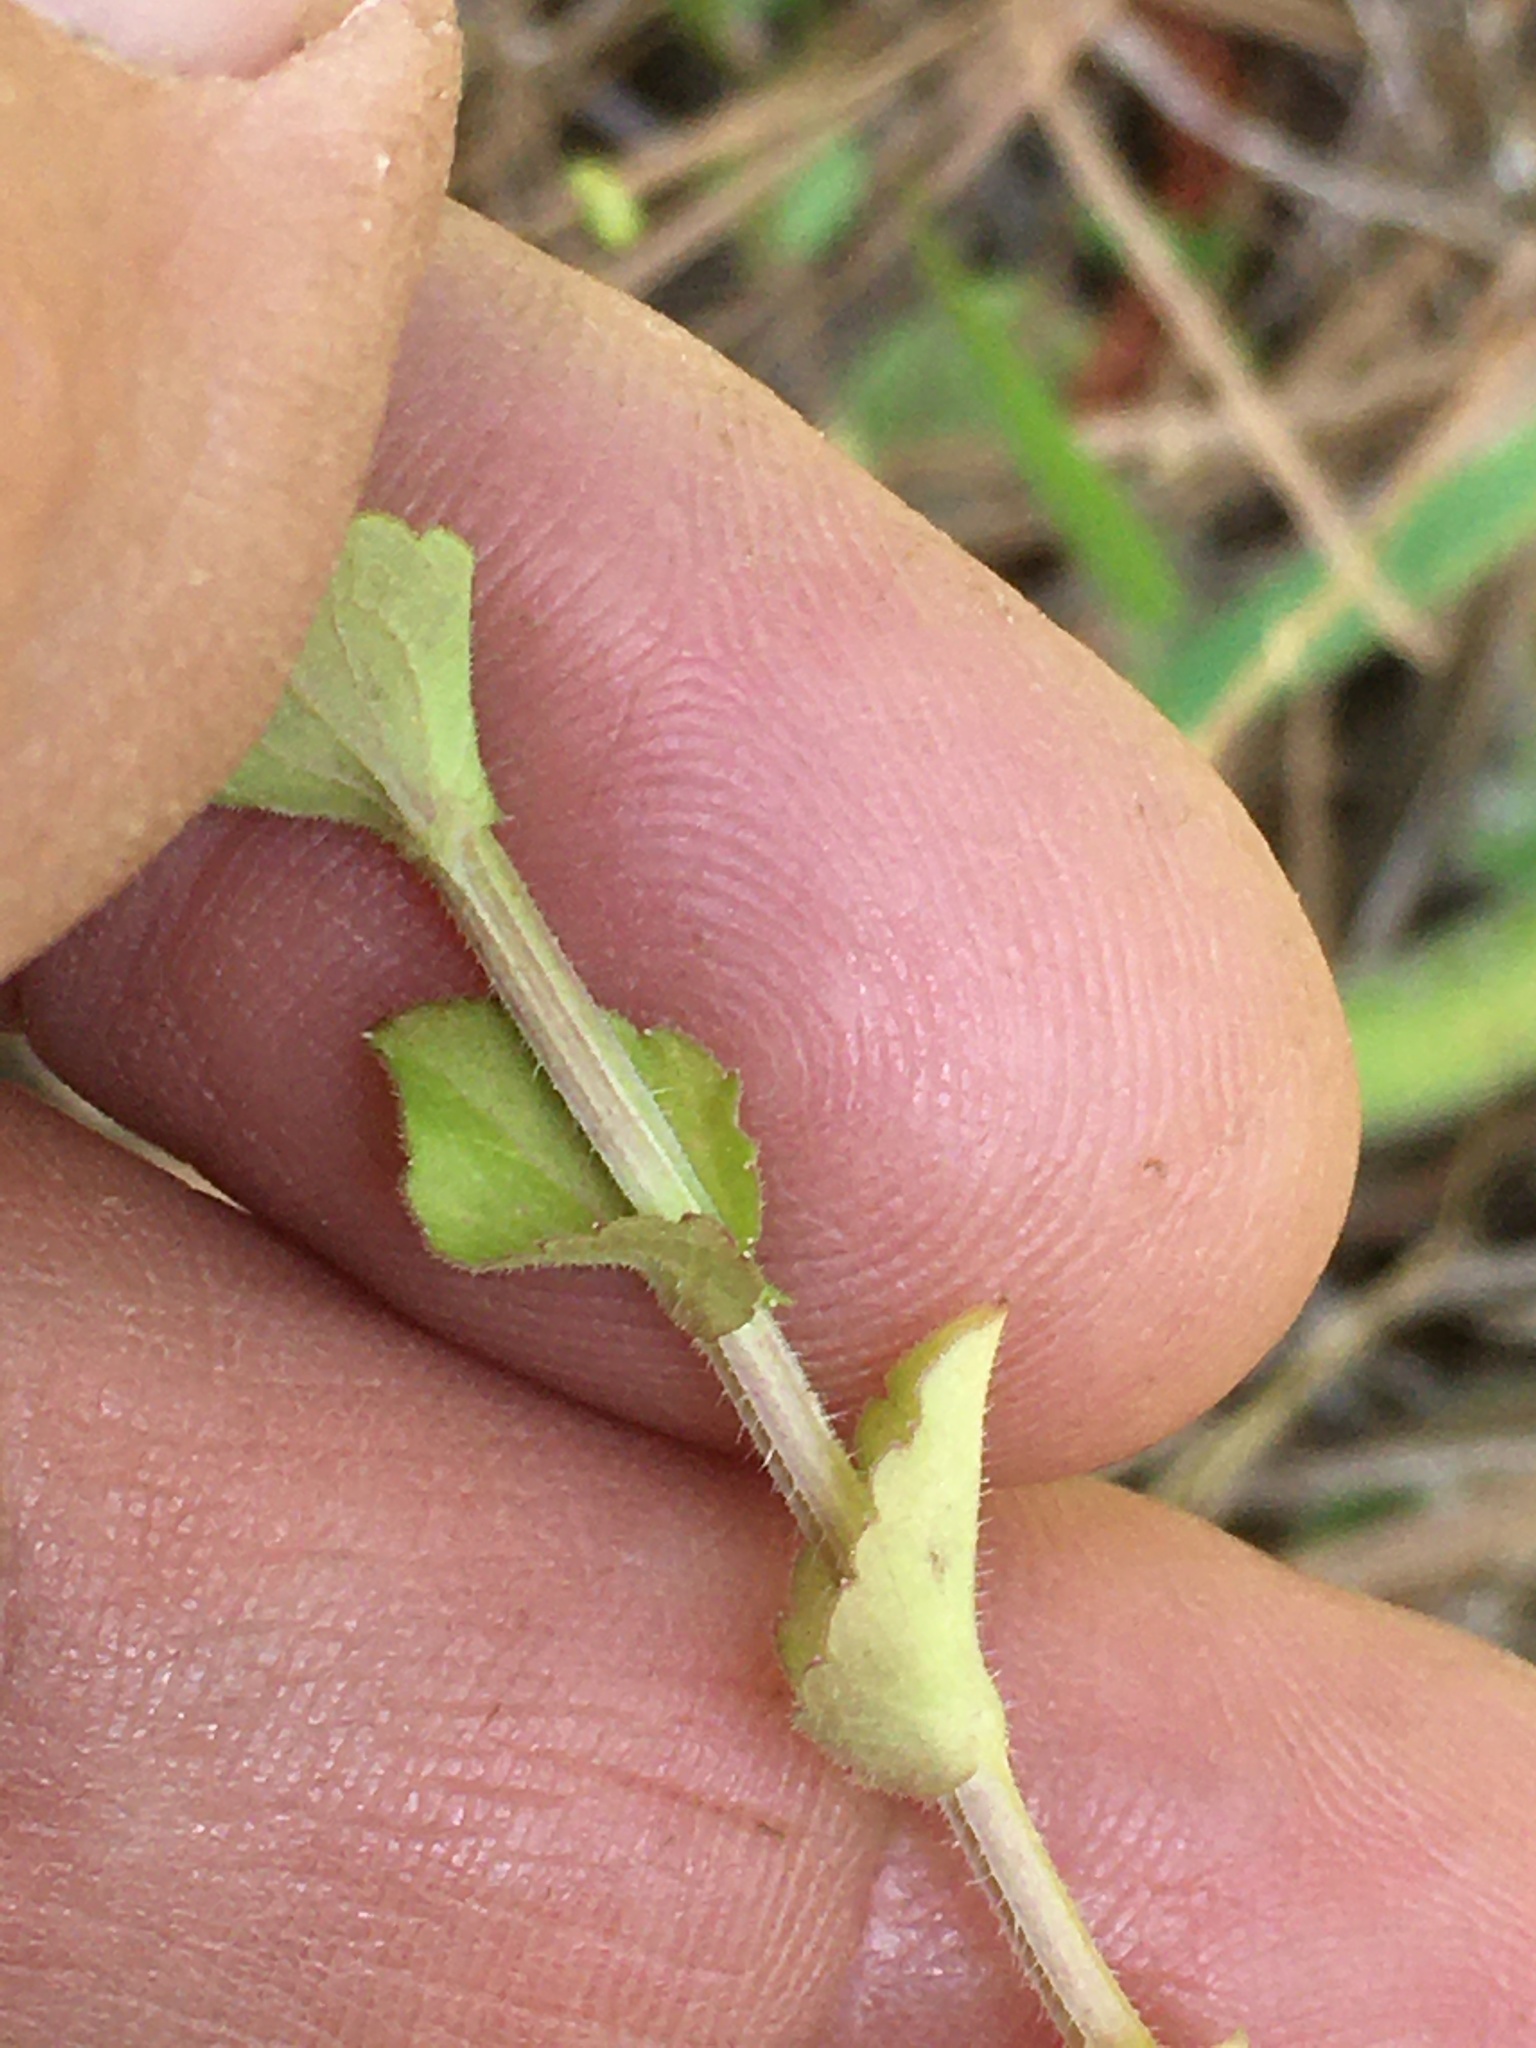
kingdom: Plantae
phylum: Tracheophyta
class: Magnoliopsida
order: Asterales
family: Campanulaceae
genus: Triodanis
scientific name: Triodanis perfoliata
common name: Clasping venus' looking-glass
